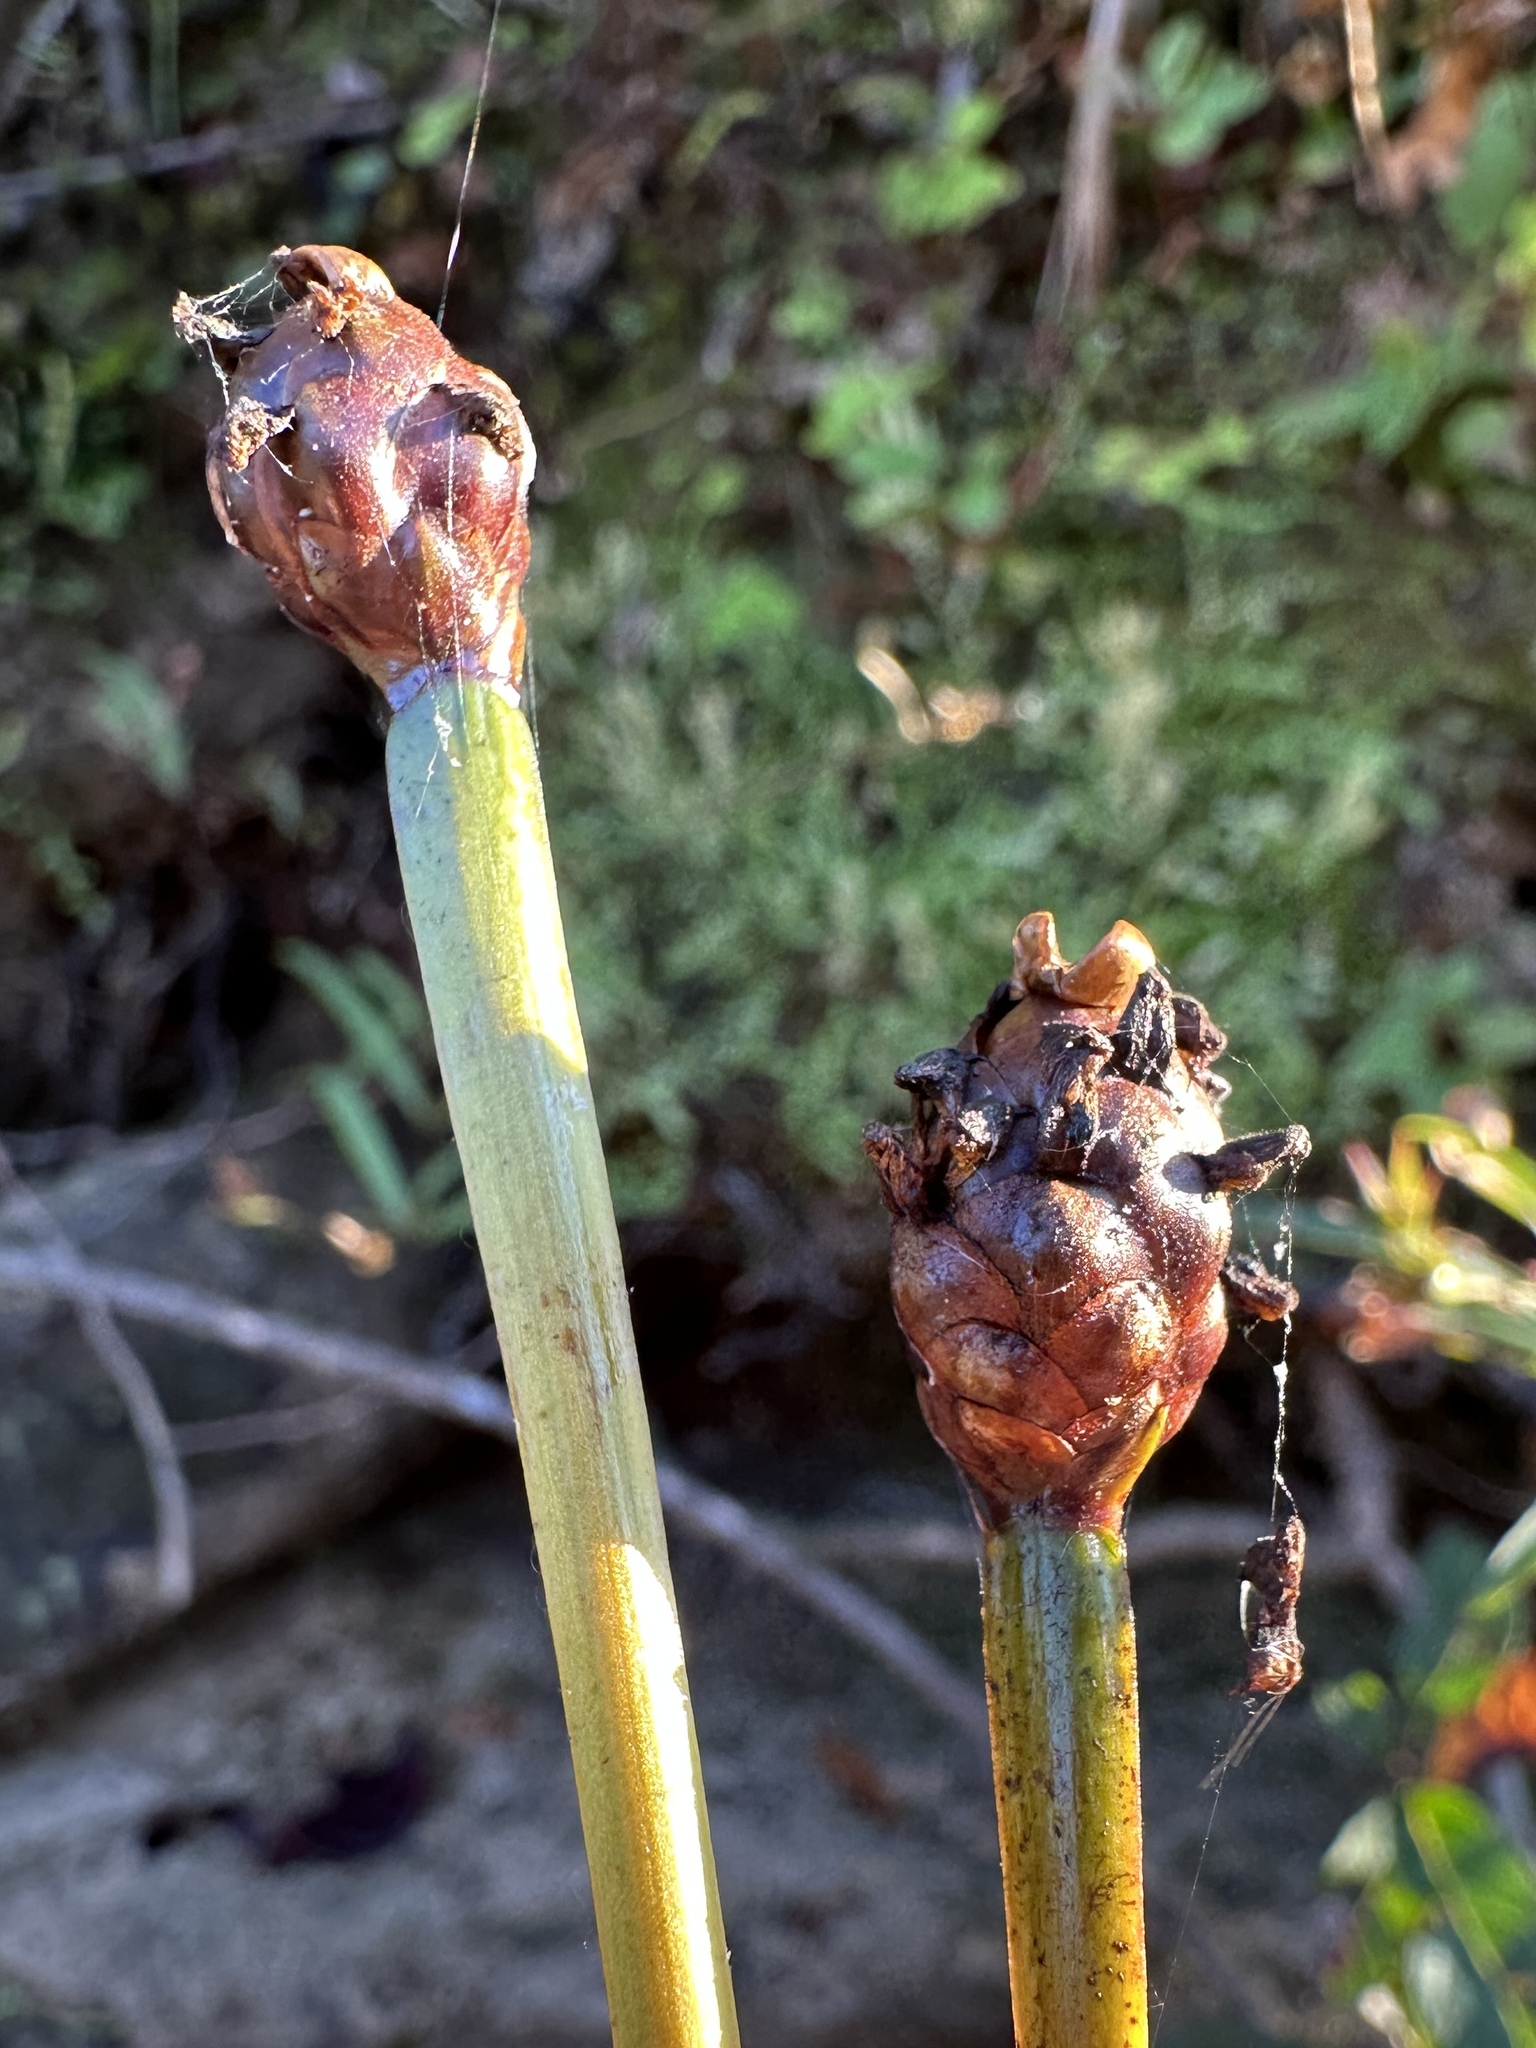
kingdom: Plantae
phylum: Tracheophyta
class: Liliopsida
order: Poales
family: Xyridaceae
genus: Xyris
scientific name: Xyris laxifolia
